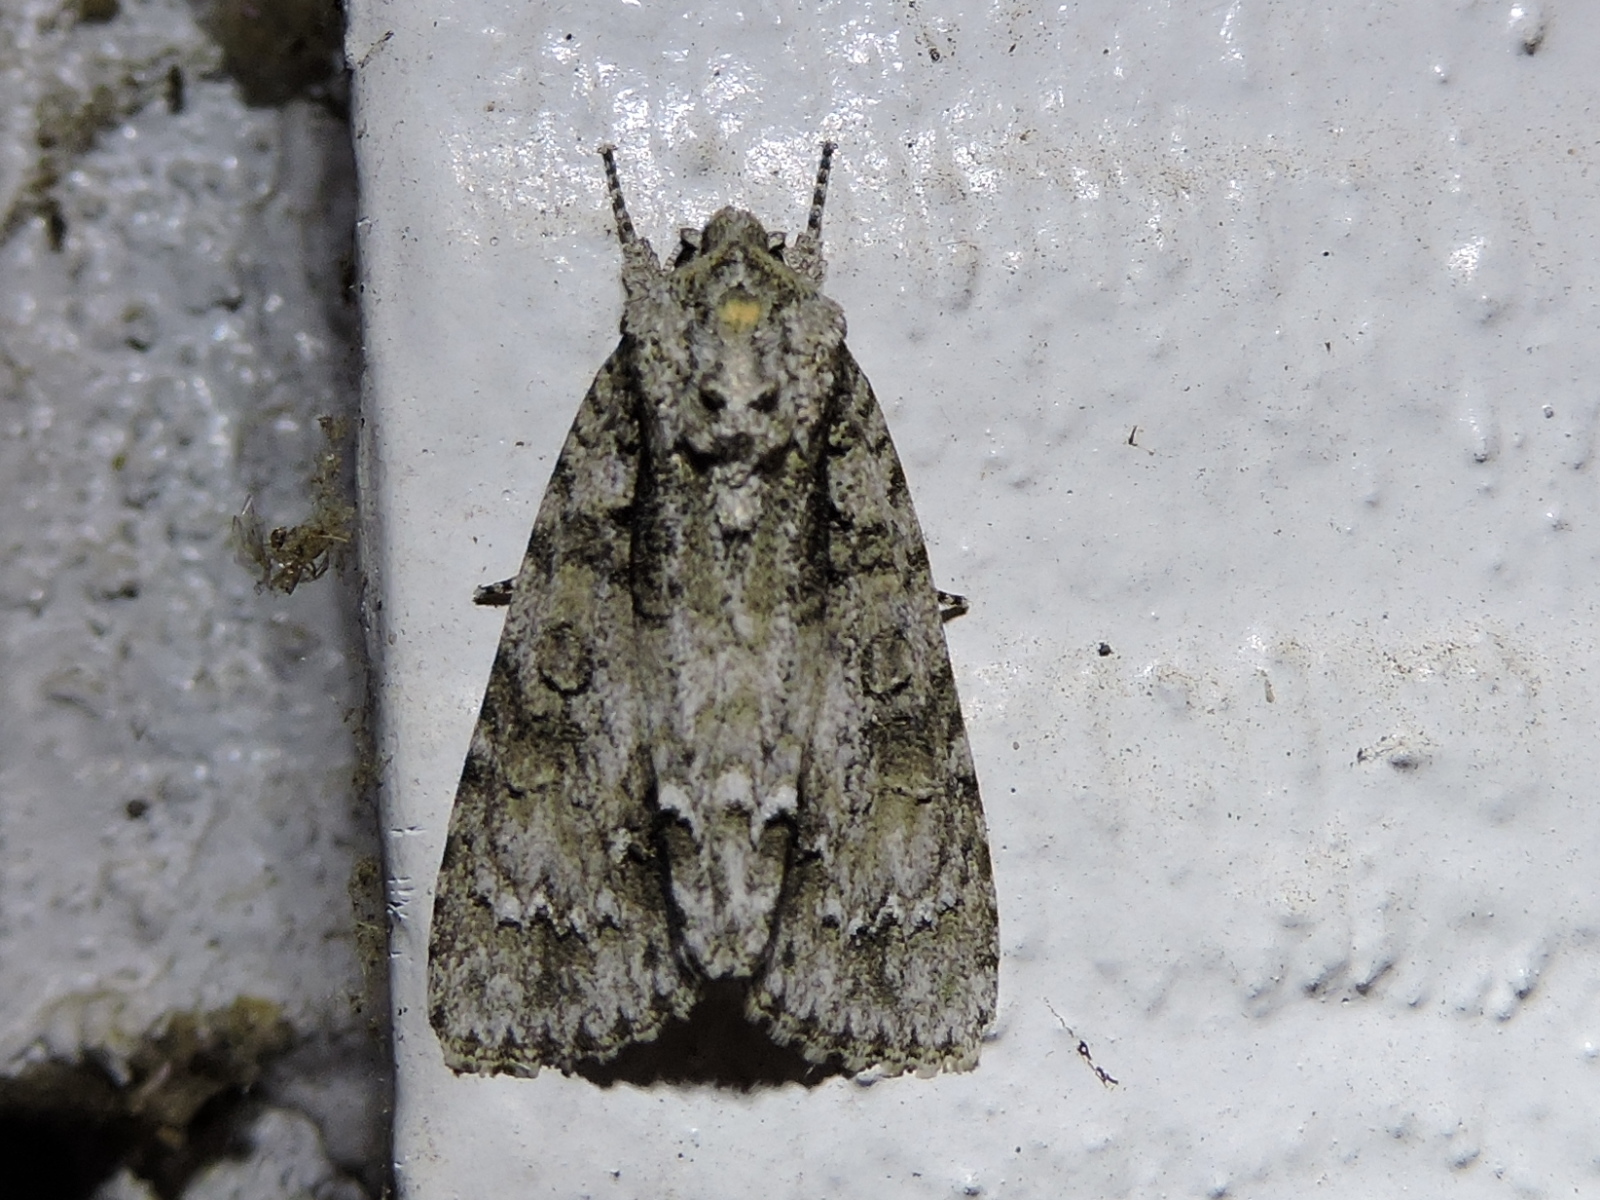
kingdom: Animalia
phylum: Arthropoda
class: Insecta
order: Lepidoptera
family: Noctuidae
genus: Acronicta
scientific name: Acronicta clarescens
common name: Clear dagger
